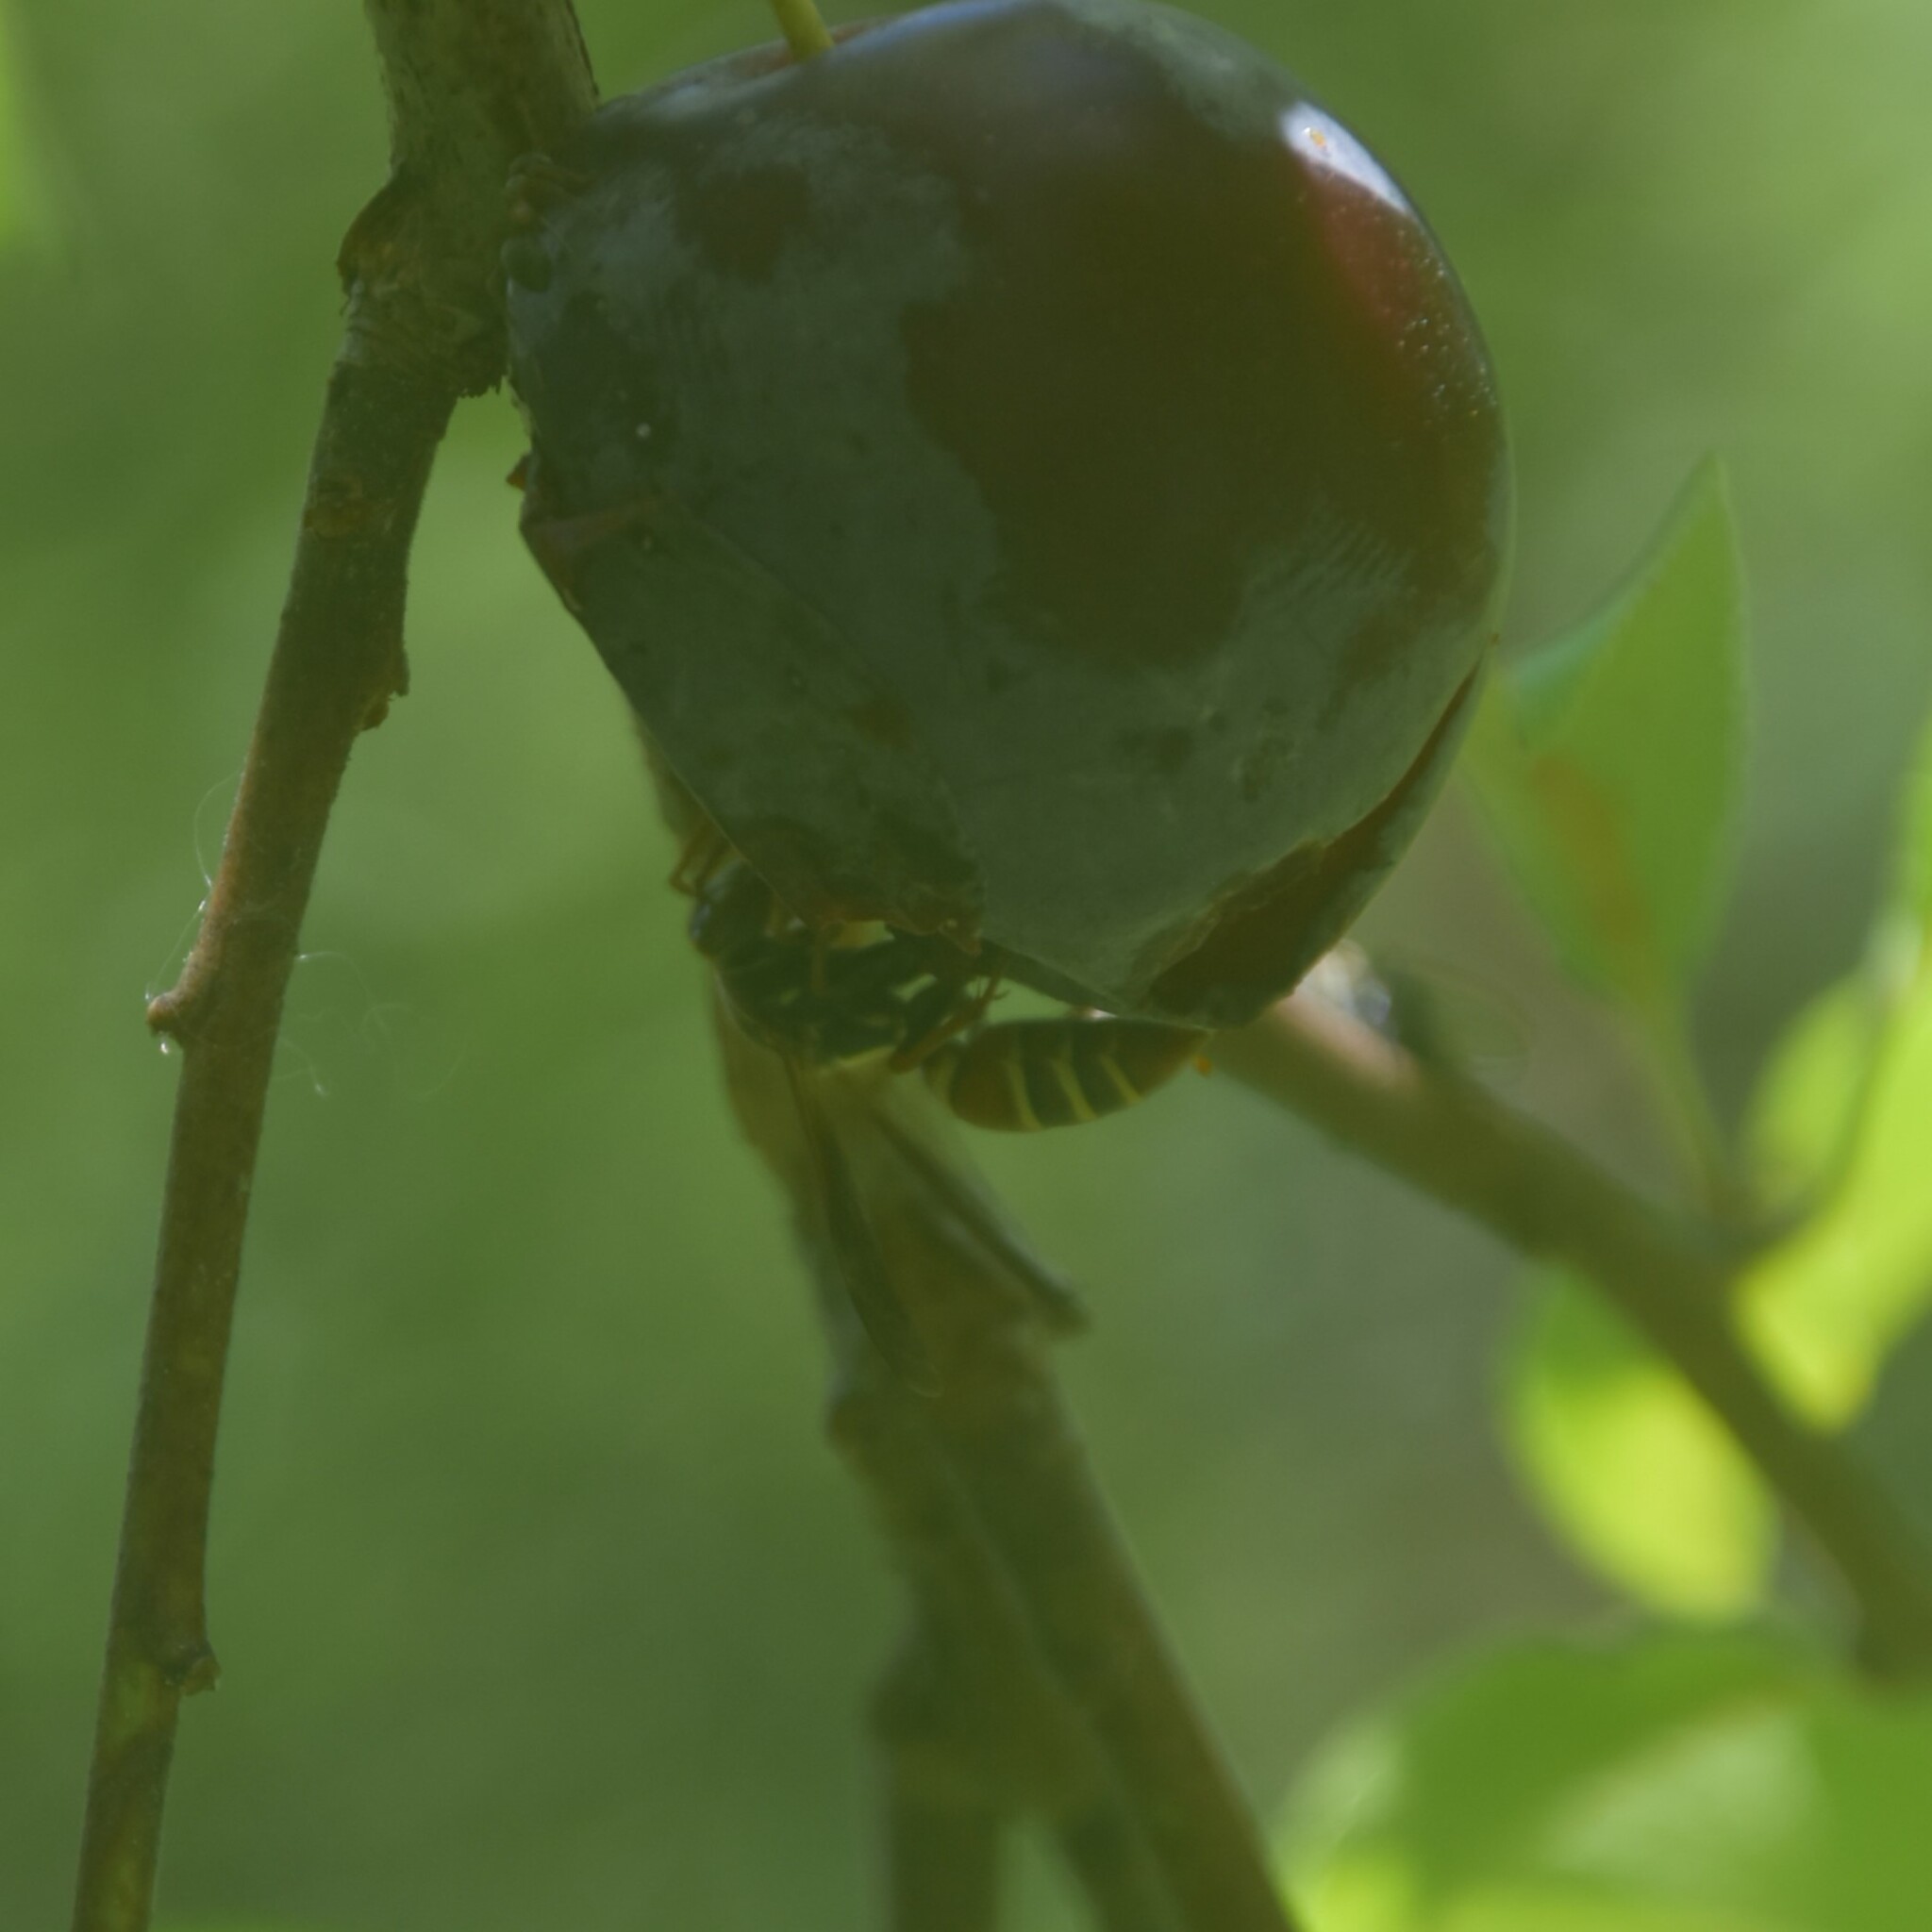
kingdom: Animalia
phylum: Arthropoda
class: Insecta
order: Hymenoptera
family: Eumenidae
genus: Knemodynerus
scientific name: Knemodynerus multimaculatus
